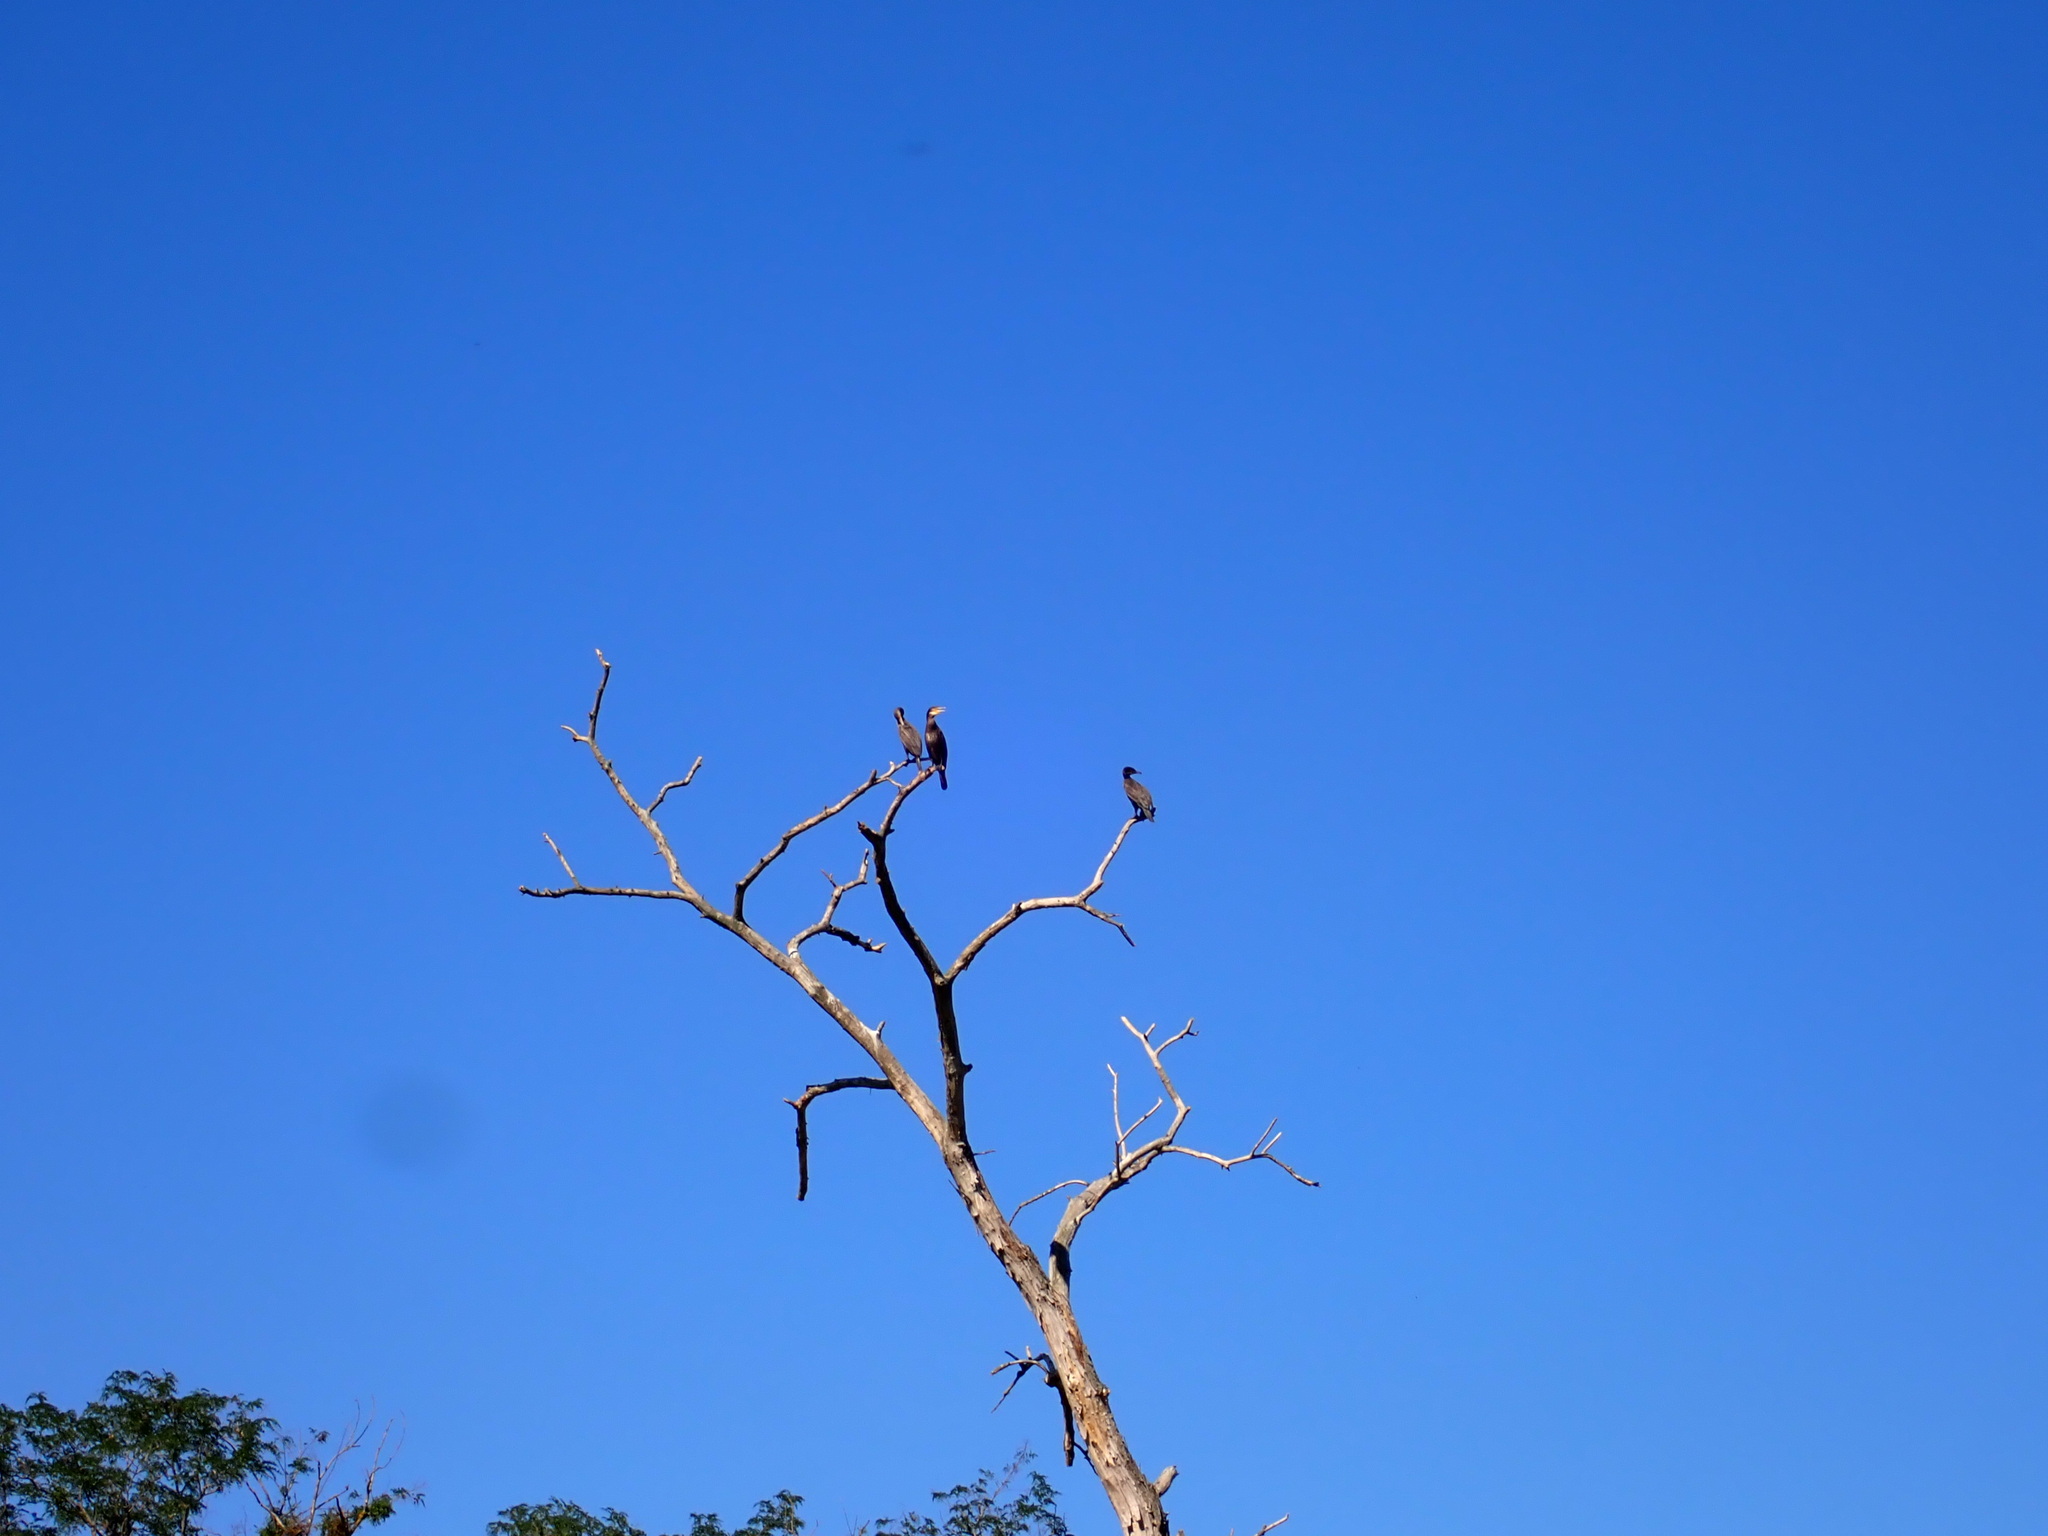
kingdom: Animalia
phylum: Chordata
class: Aves
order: Suliformes
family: Phalacrocoracidae
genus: Phalacrocorax
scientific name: Phalacrocorax carbo
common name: Great cormorant
